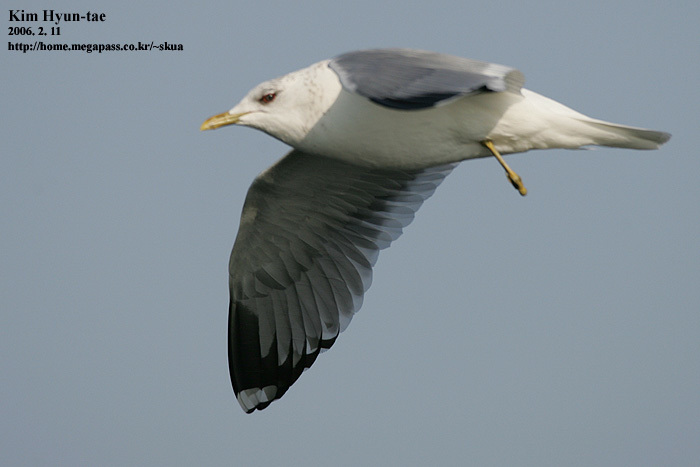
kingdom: Animalia
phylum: Chordata
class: Aves
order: Charadriiformes
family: Laridae
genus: Larus
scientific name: Larus canus
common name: Mew gull
